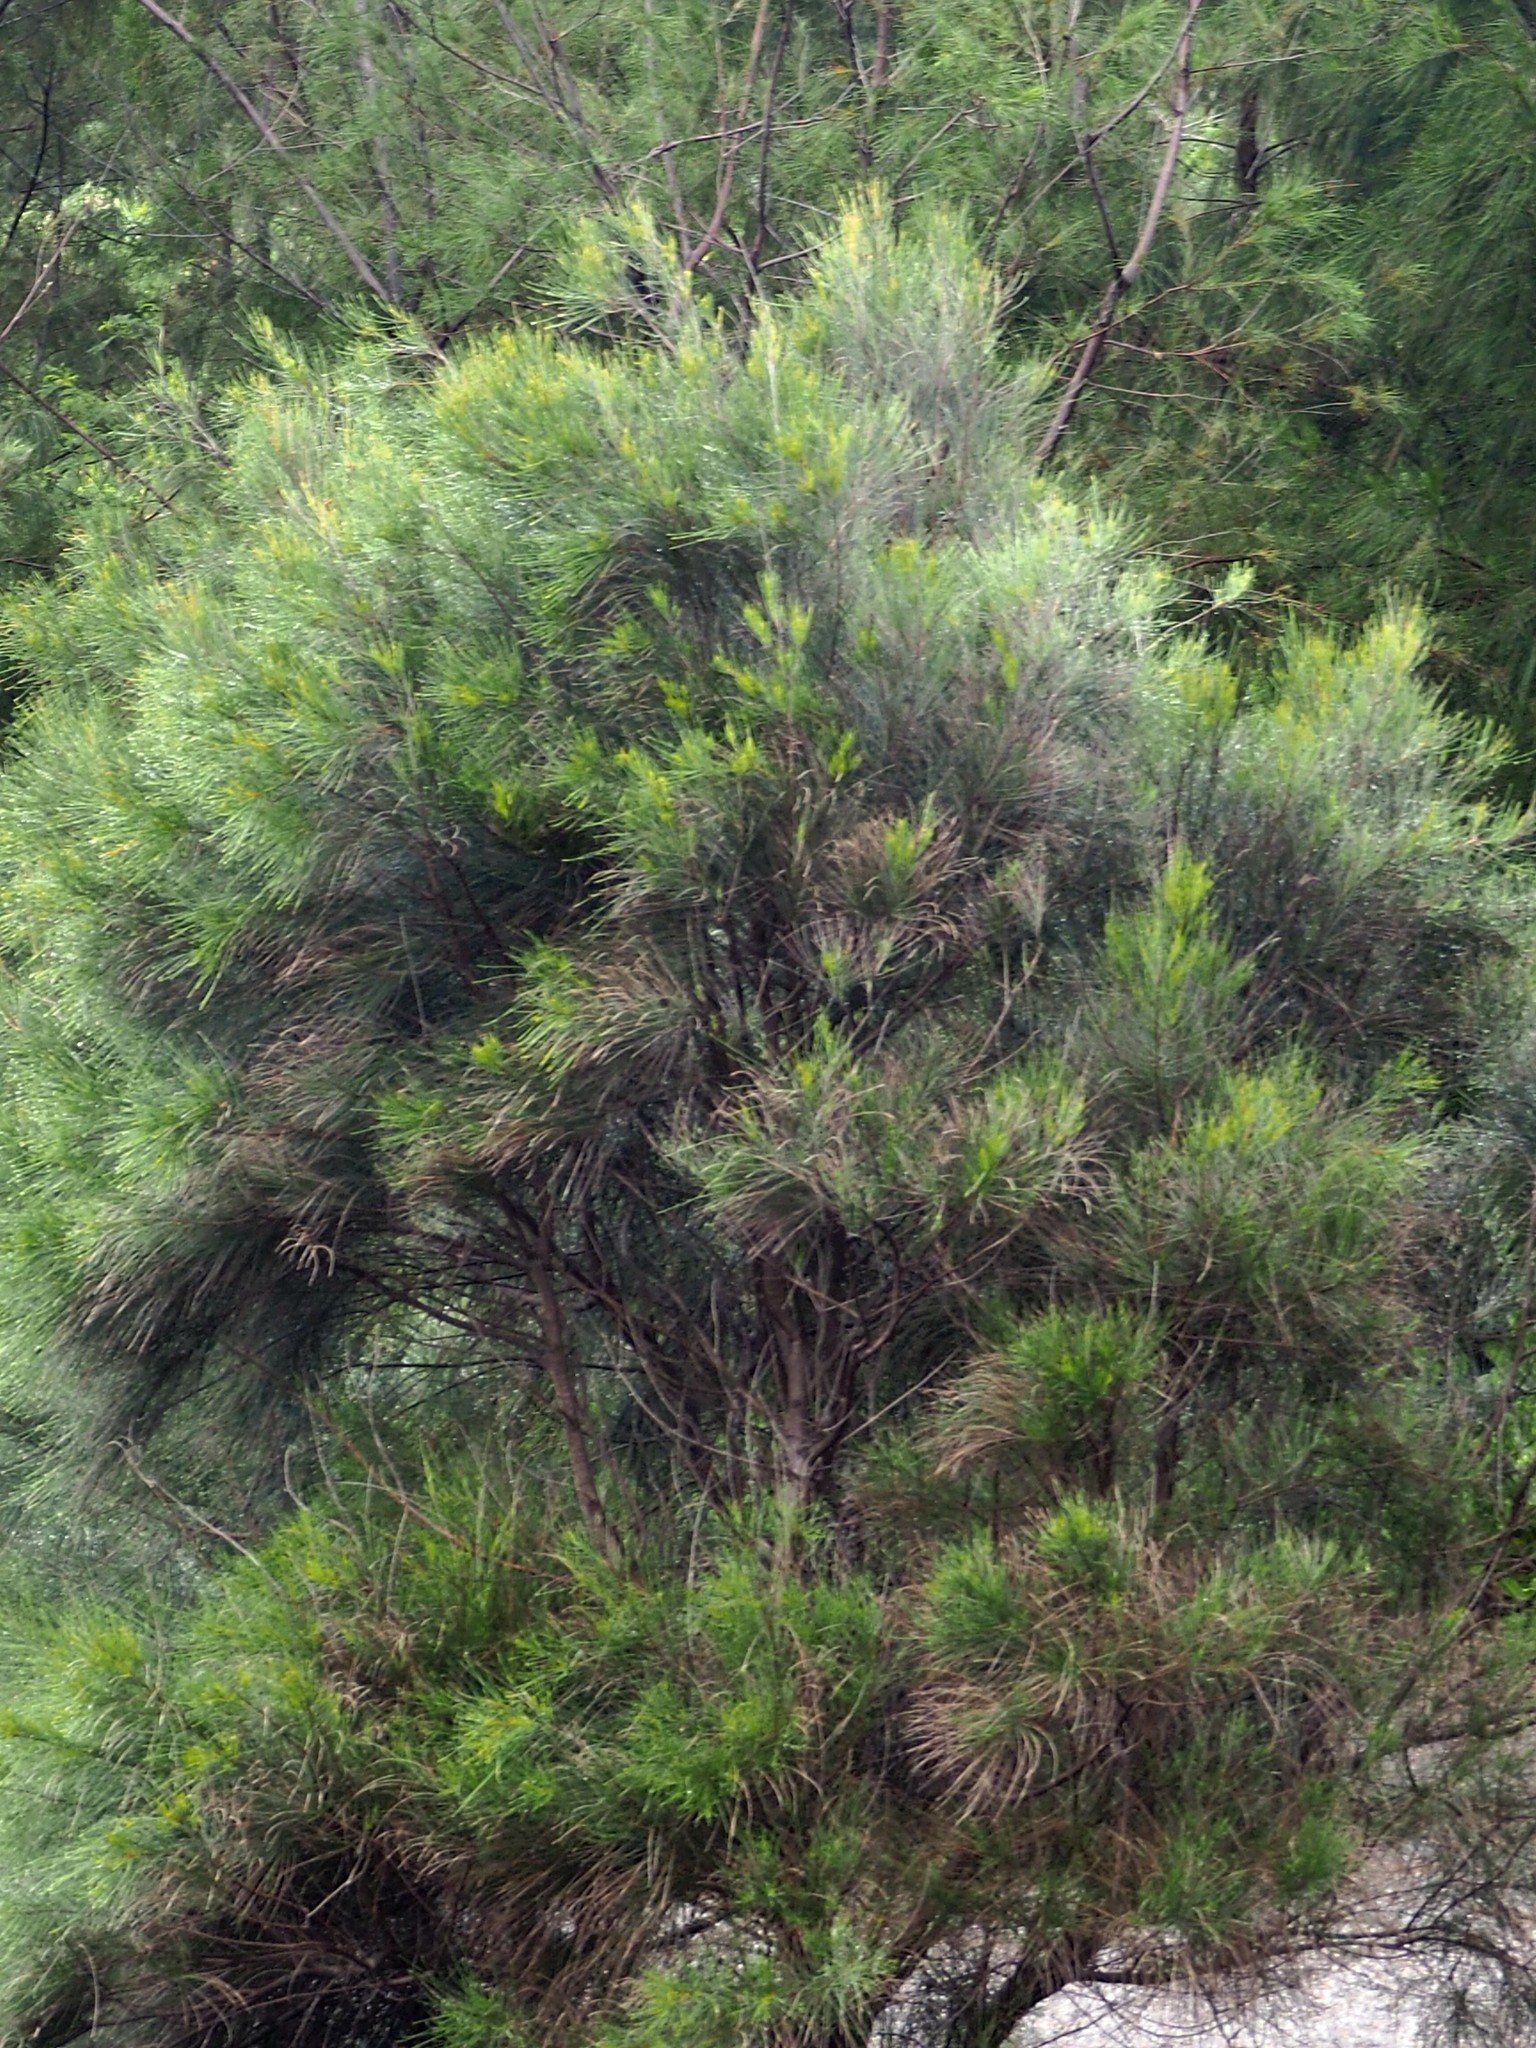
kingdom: Plantae
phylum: Tracheophyta
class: Magnoliopsida
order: Fagales
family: Casuarinaceae
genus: Casuarina
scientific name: Casuarina equisetifolia
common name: Beach sheoak
